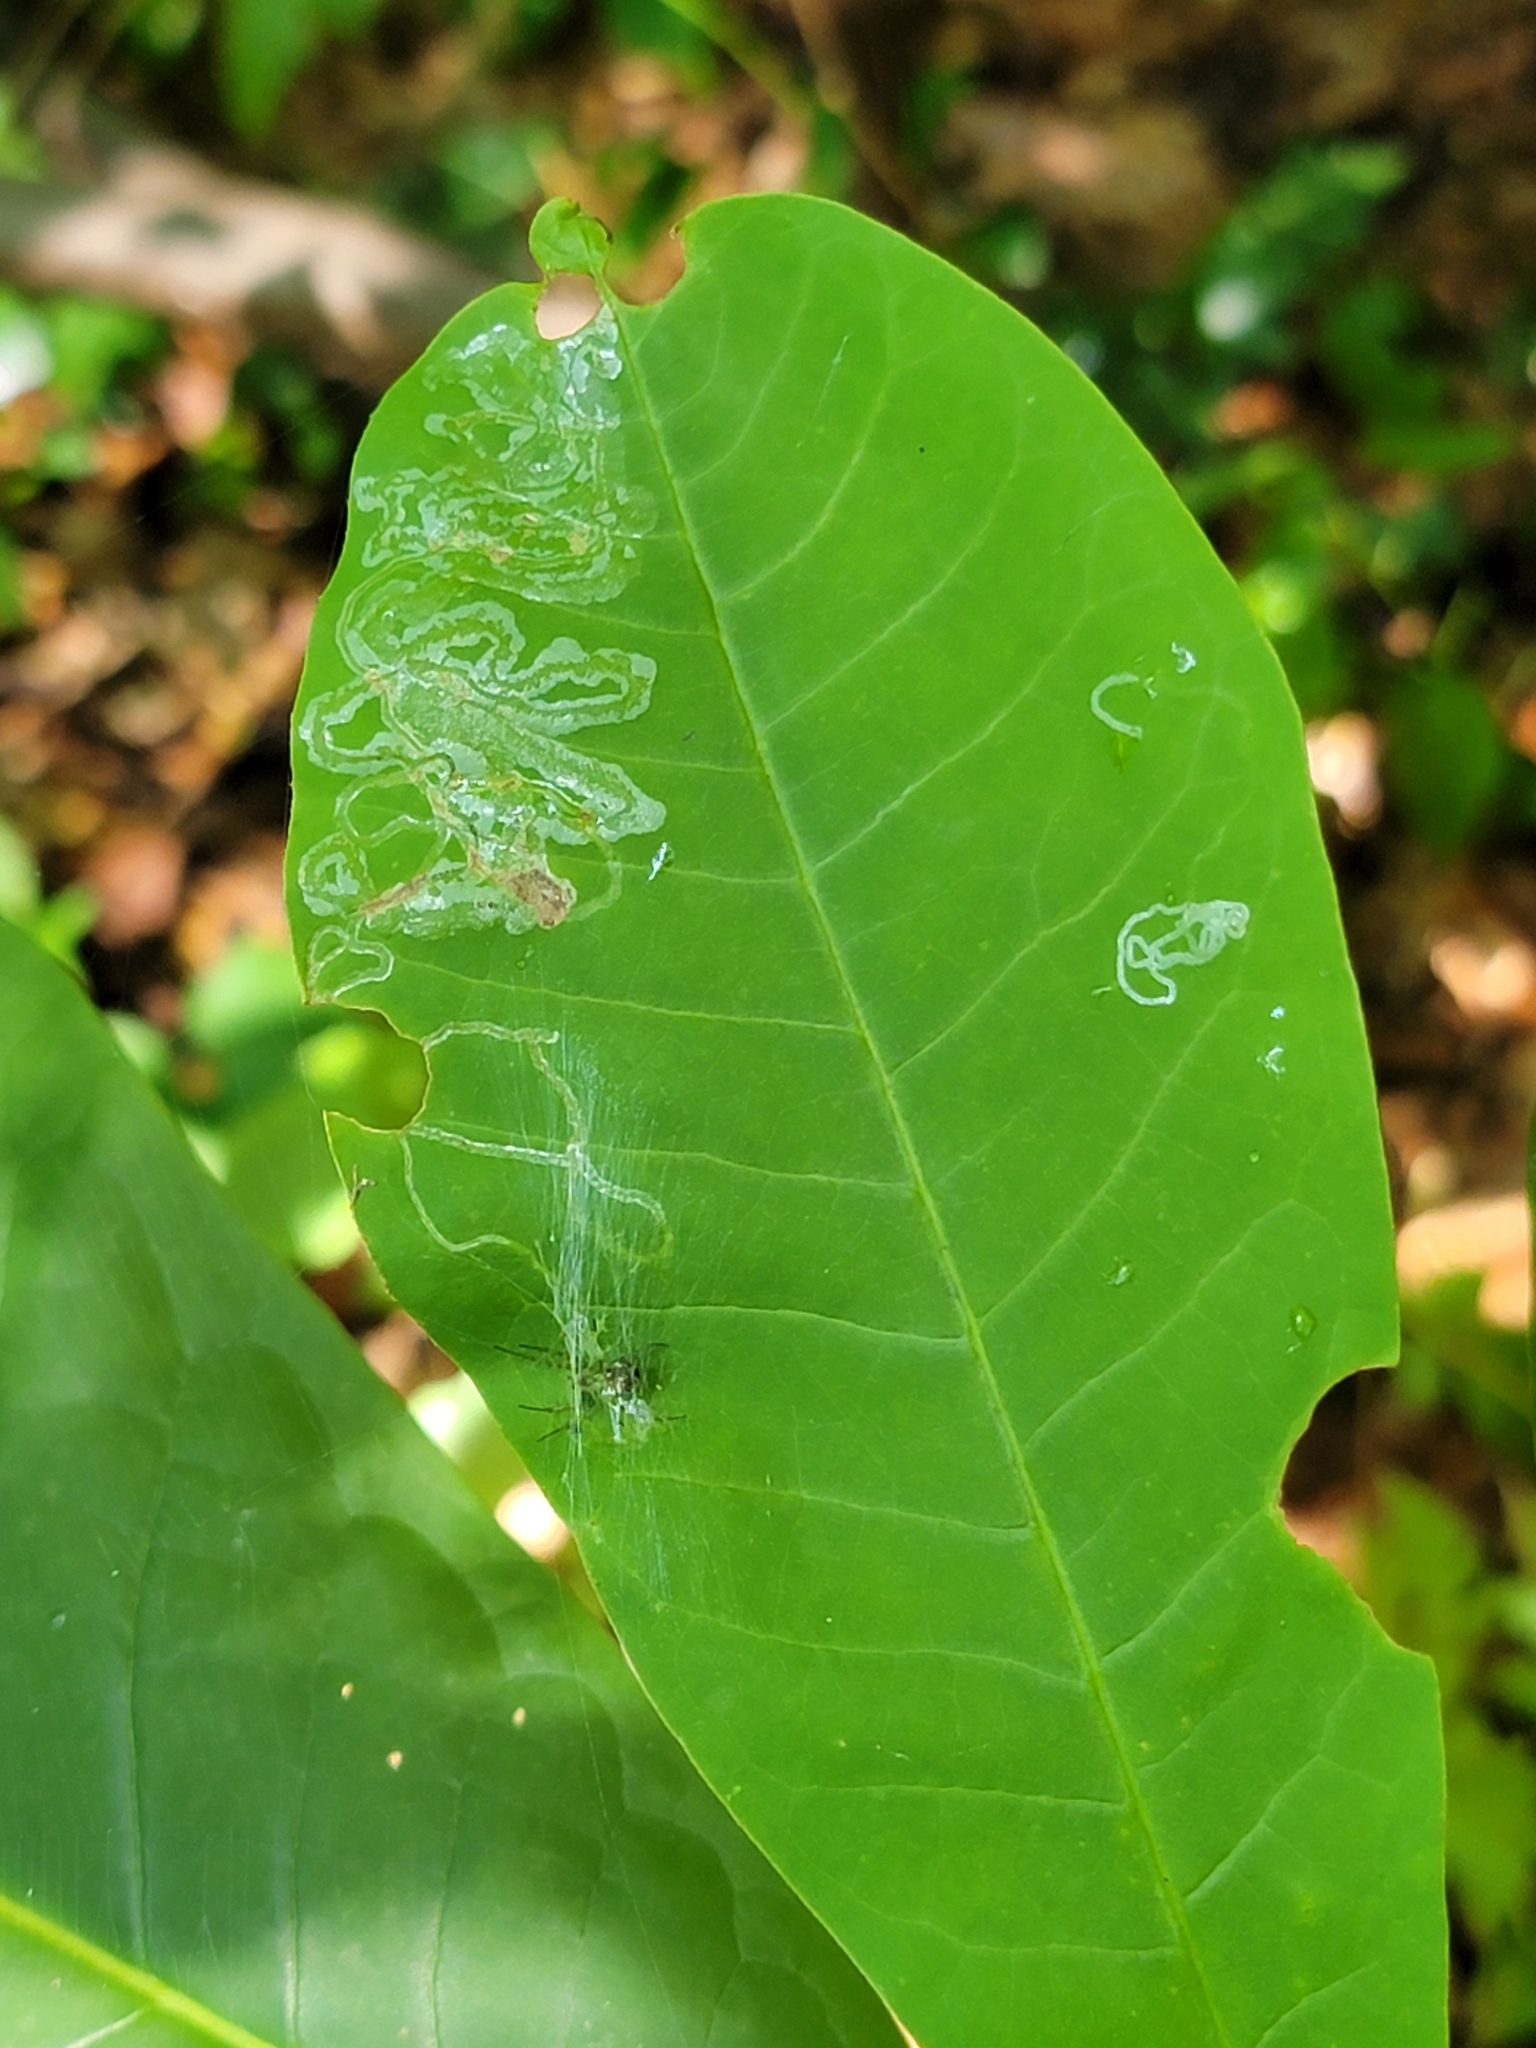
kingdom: Animalia
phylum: Arthropoda
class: Insecta
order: Lepidoptera
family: Gracillariidae
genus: Phyllocnistis
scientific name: Phyllocnistis liriodendronella
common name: Tulip tree leaf miner
